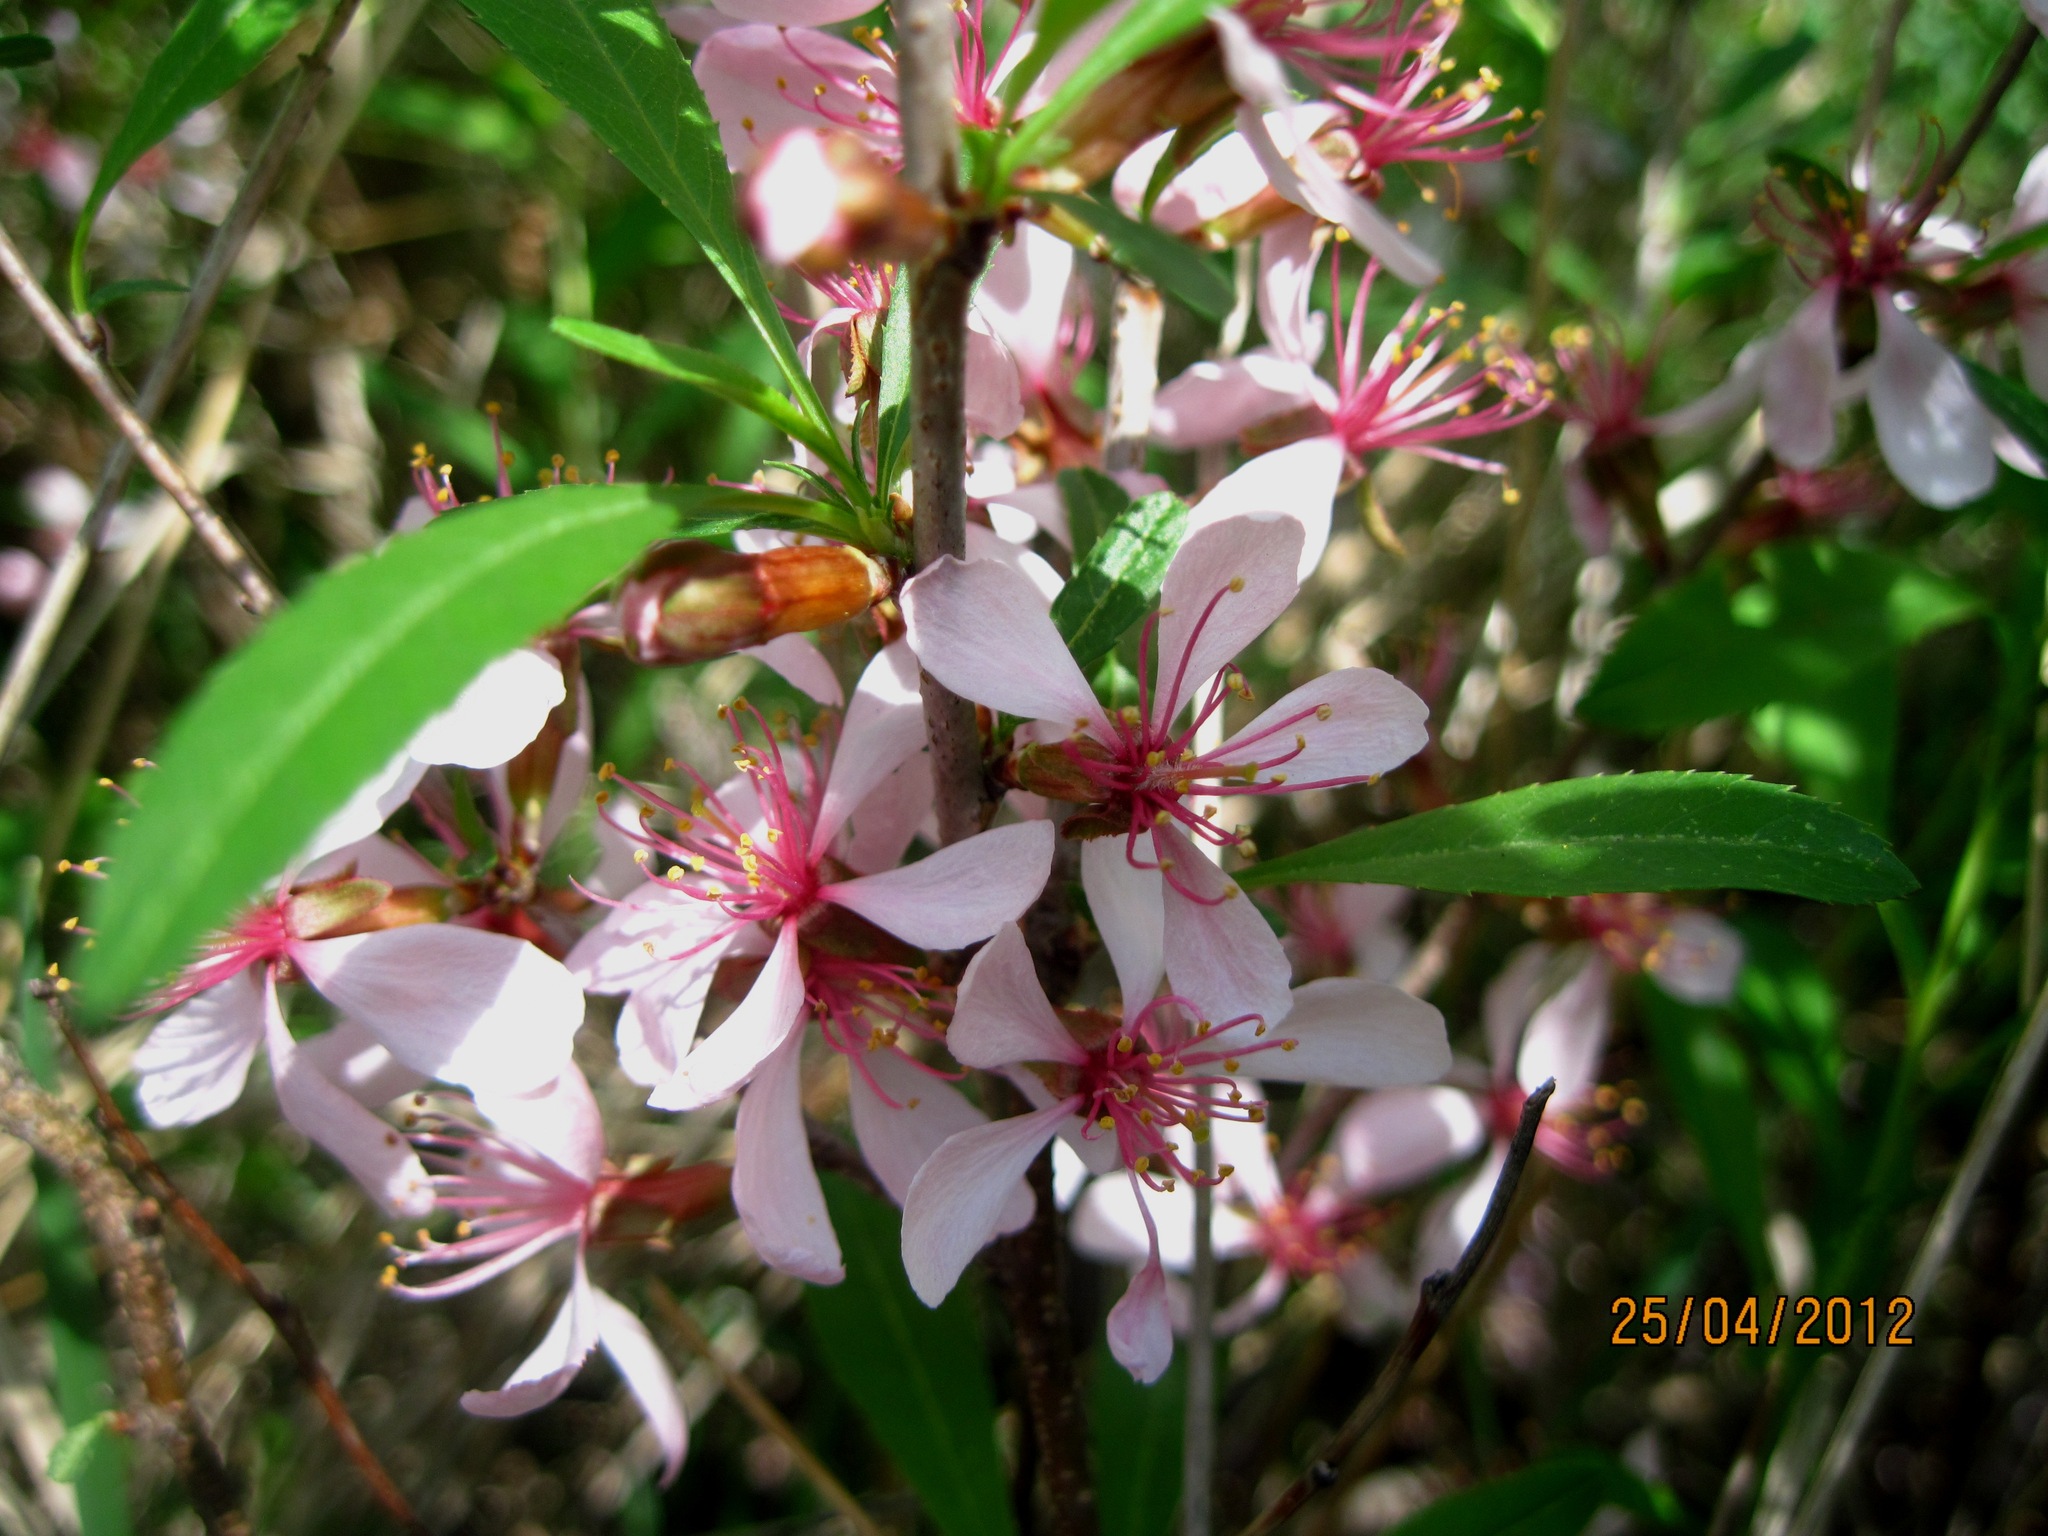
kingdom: Plantae
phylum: Tracheophyta
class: Magnoliopsida
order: Rosales
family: Rosaceae
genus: Prunus
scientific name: Prunus tenella
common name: Dwarf russian almond
